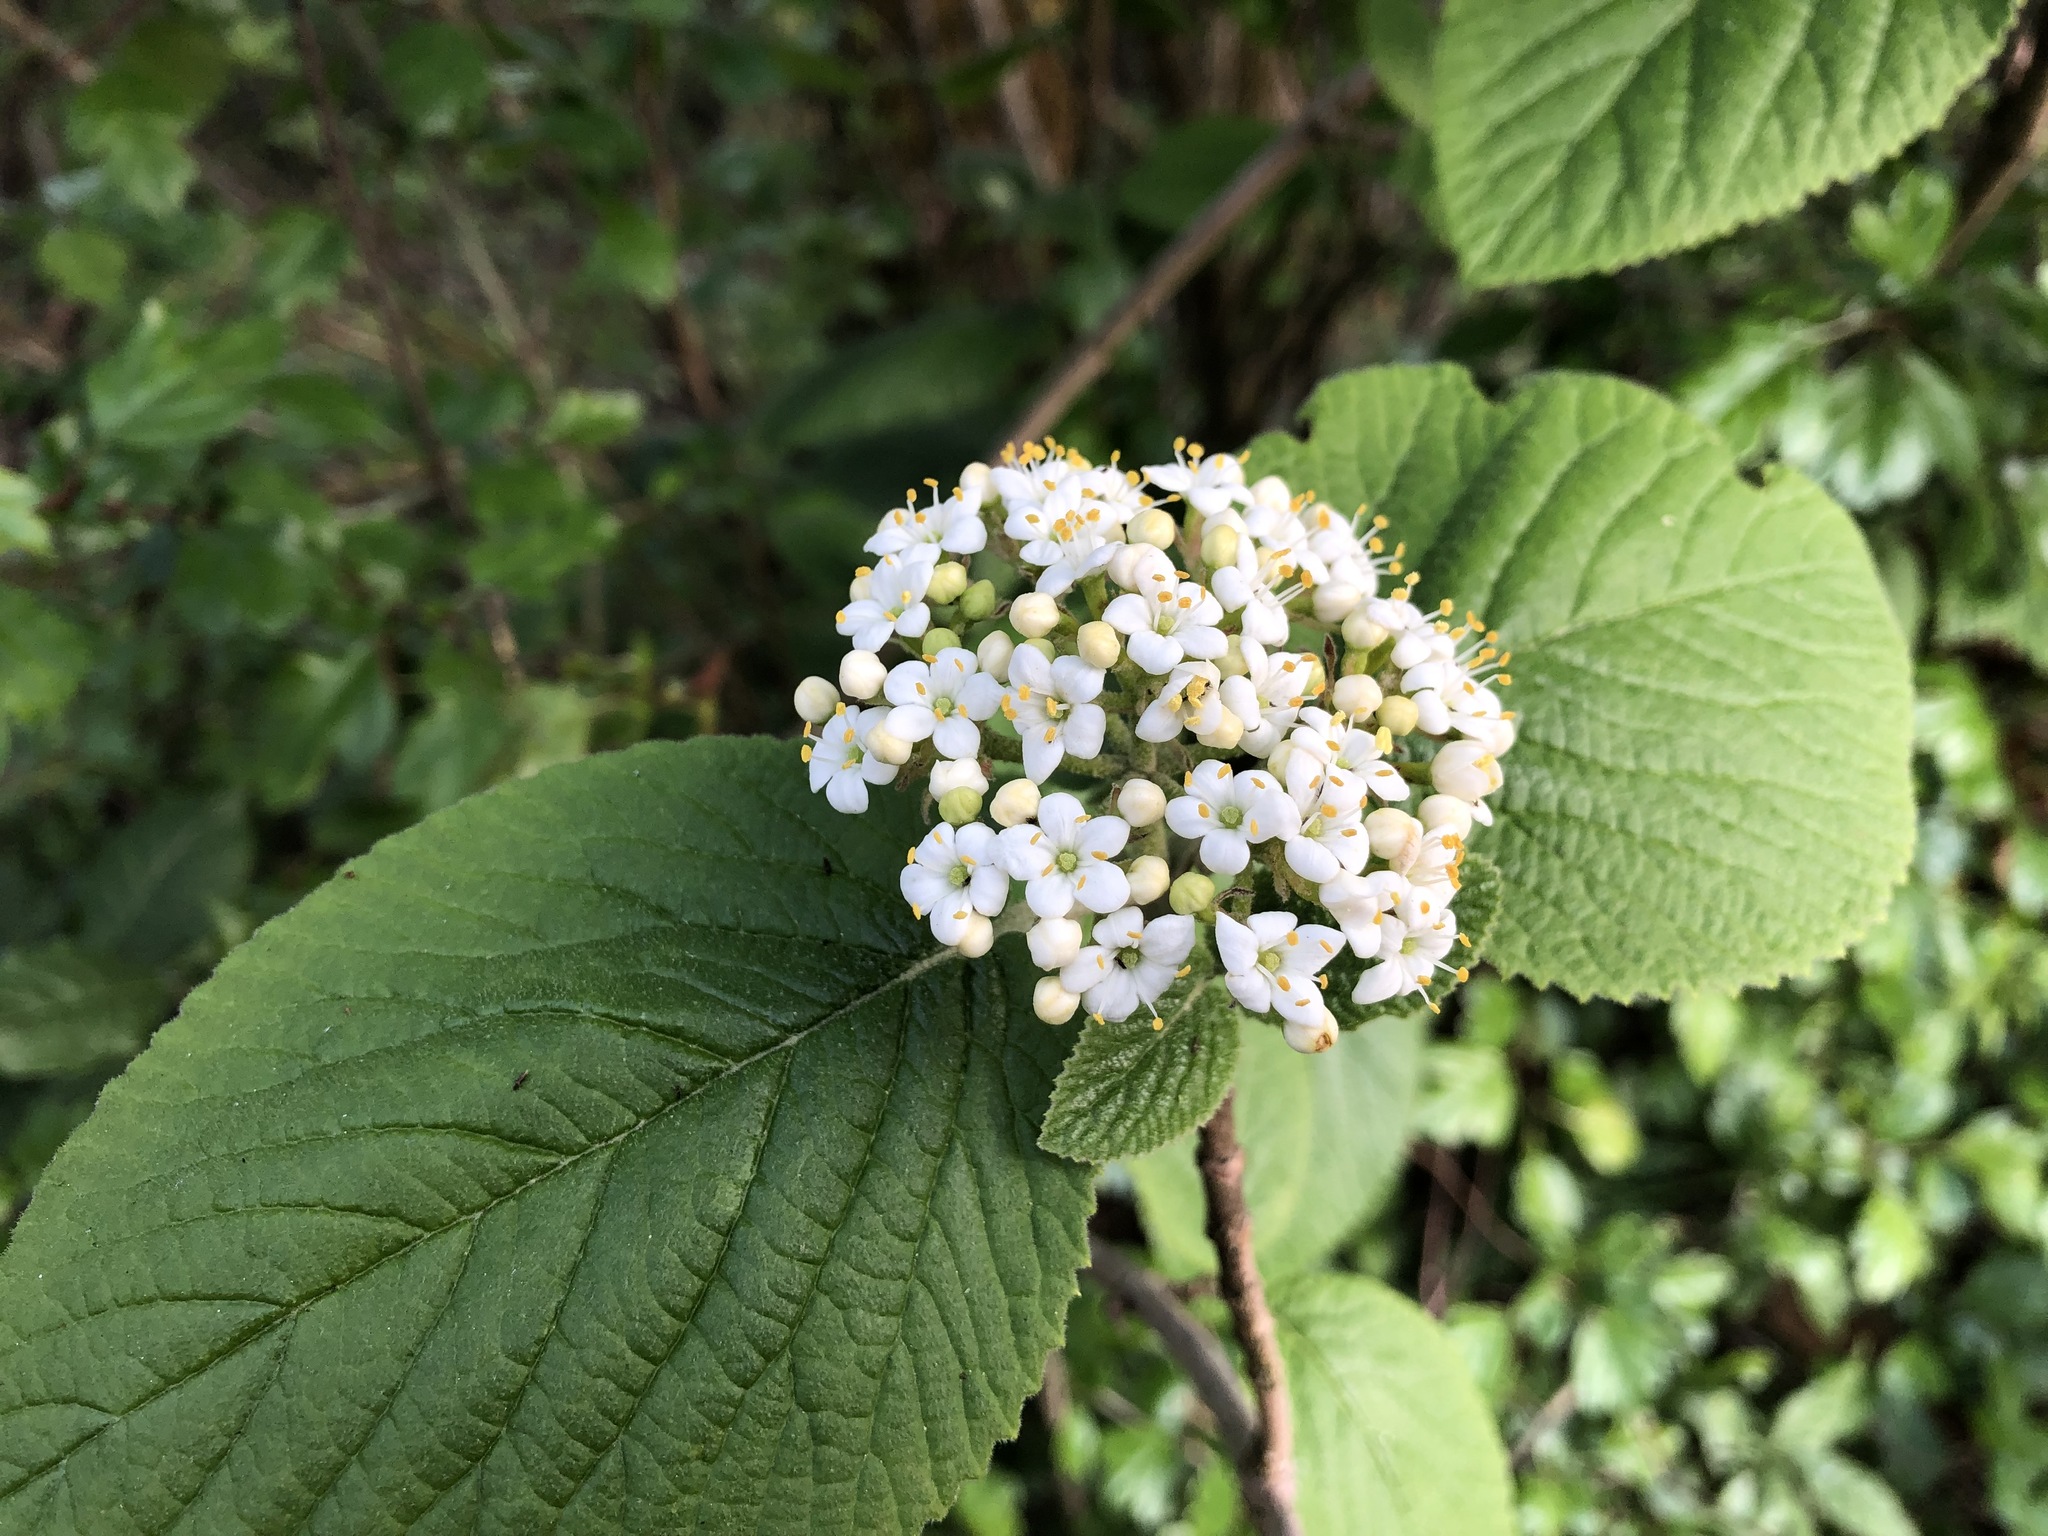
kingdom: Plantae
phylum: Tracheophyta
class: Magnoliopsida
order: Dipsacales
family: Viburnaceae
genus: Viburnum
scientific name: Viburnum lantana
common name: Wayfaring tree
